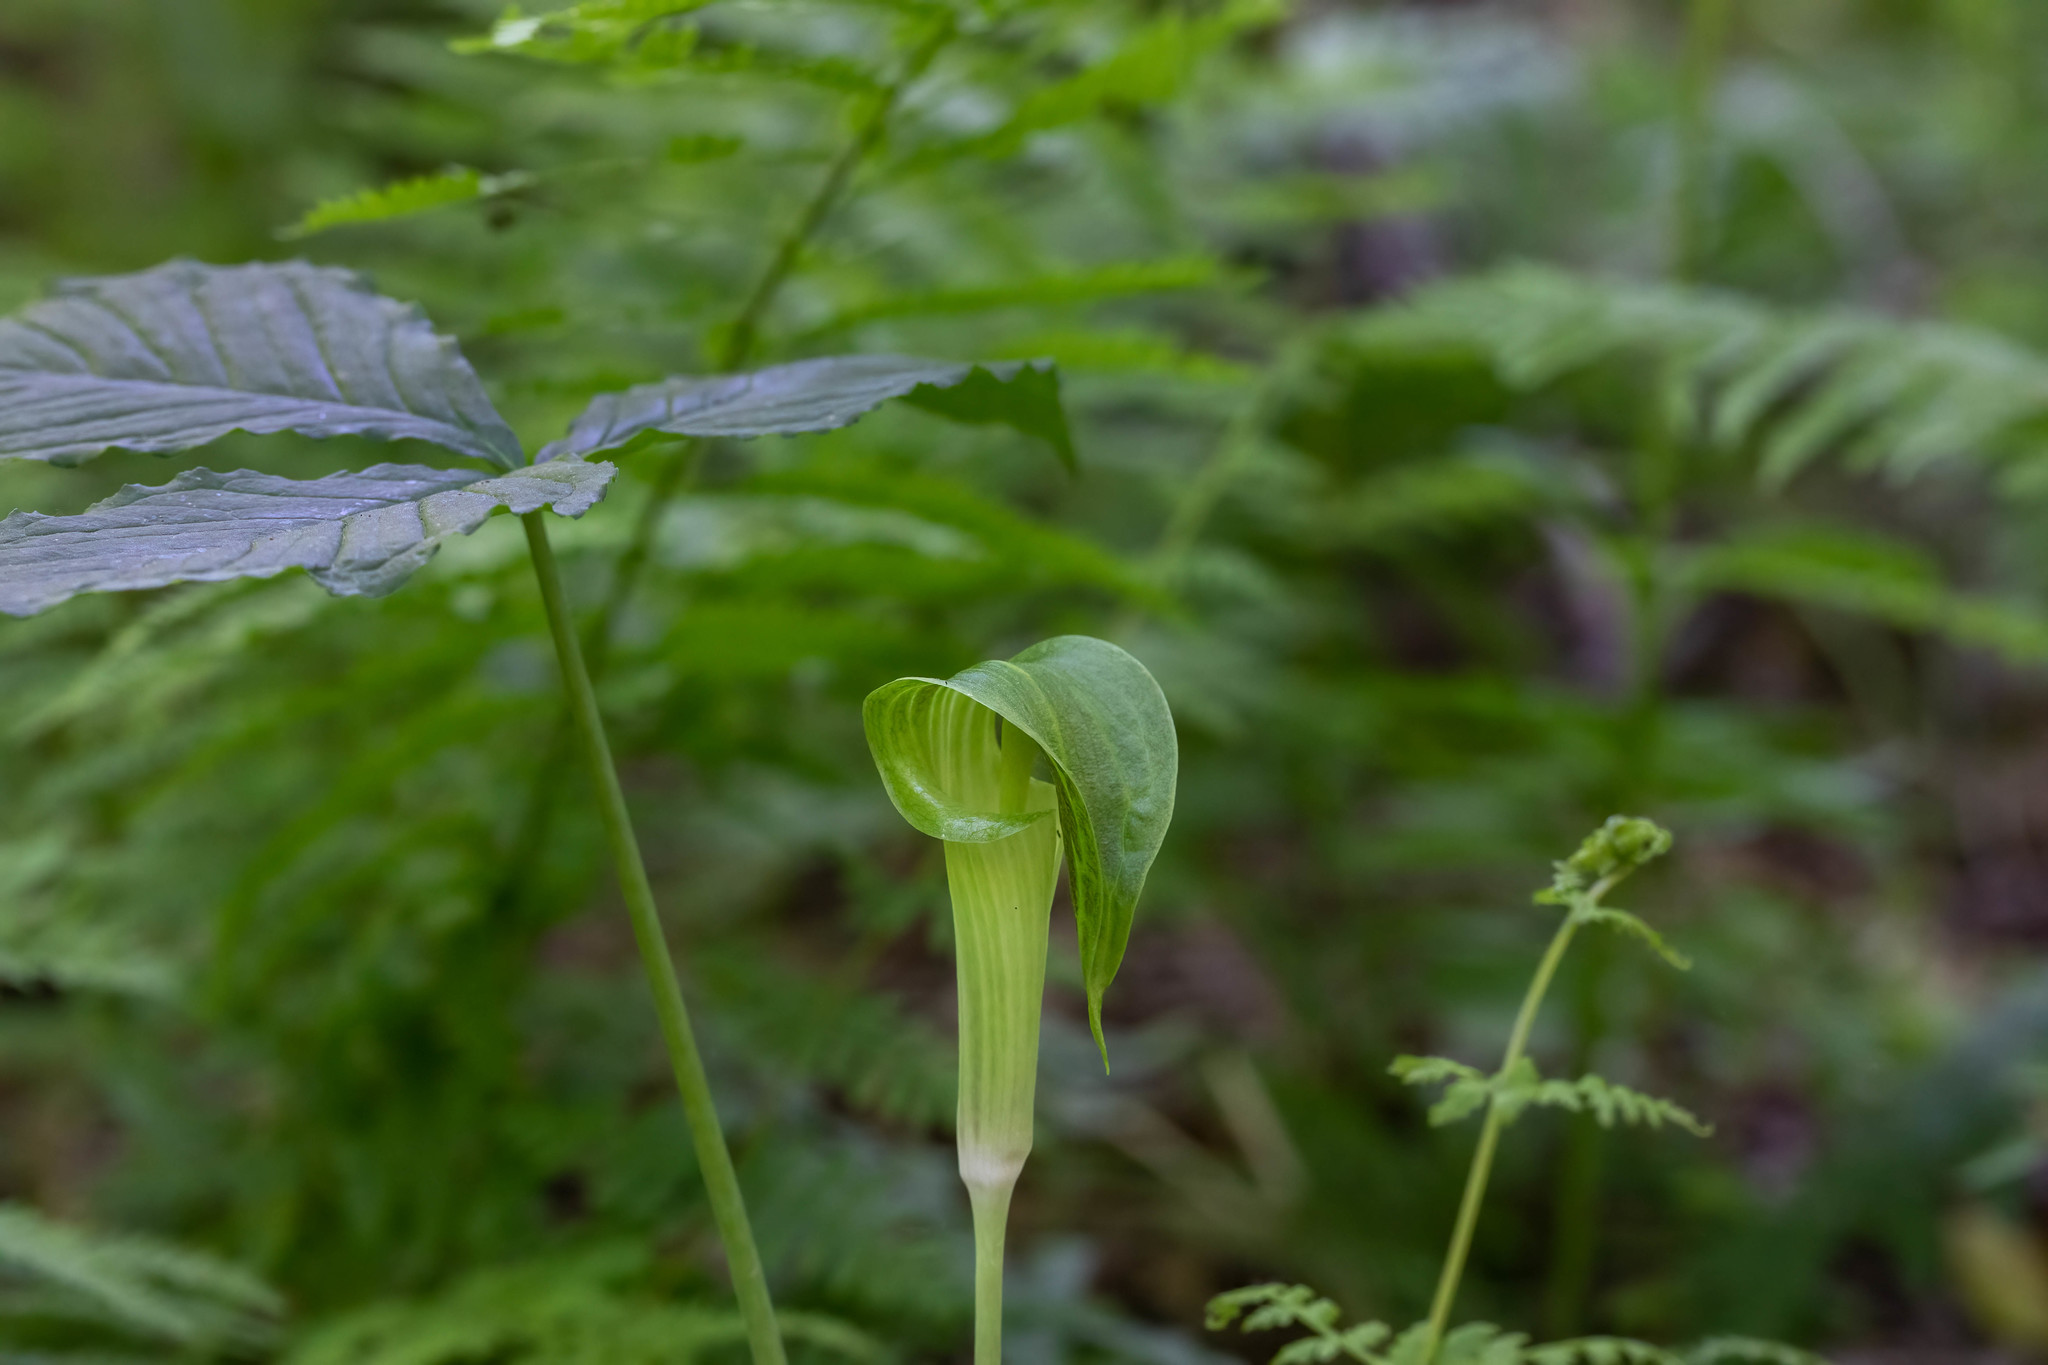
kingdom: Plantae
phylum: Tracheophyta
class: Liliopsida
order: Alismatales
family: Araceae
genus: Arisaema
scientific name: Arisaema triphyllum
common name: Jack-in-the-pulpit
